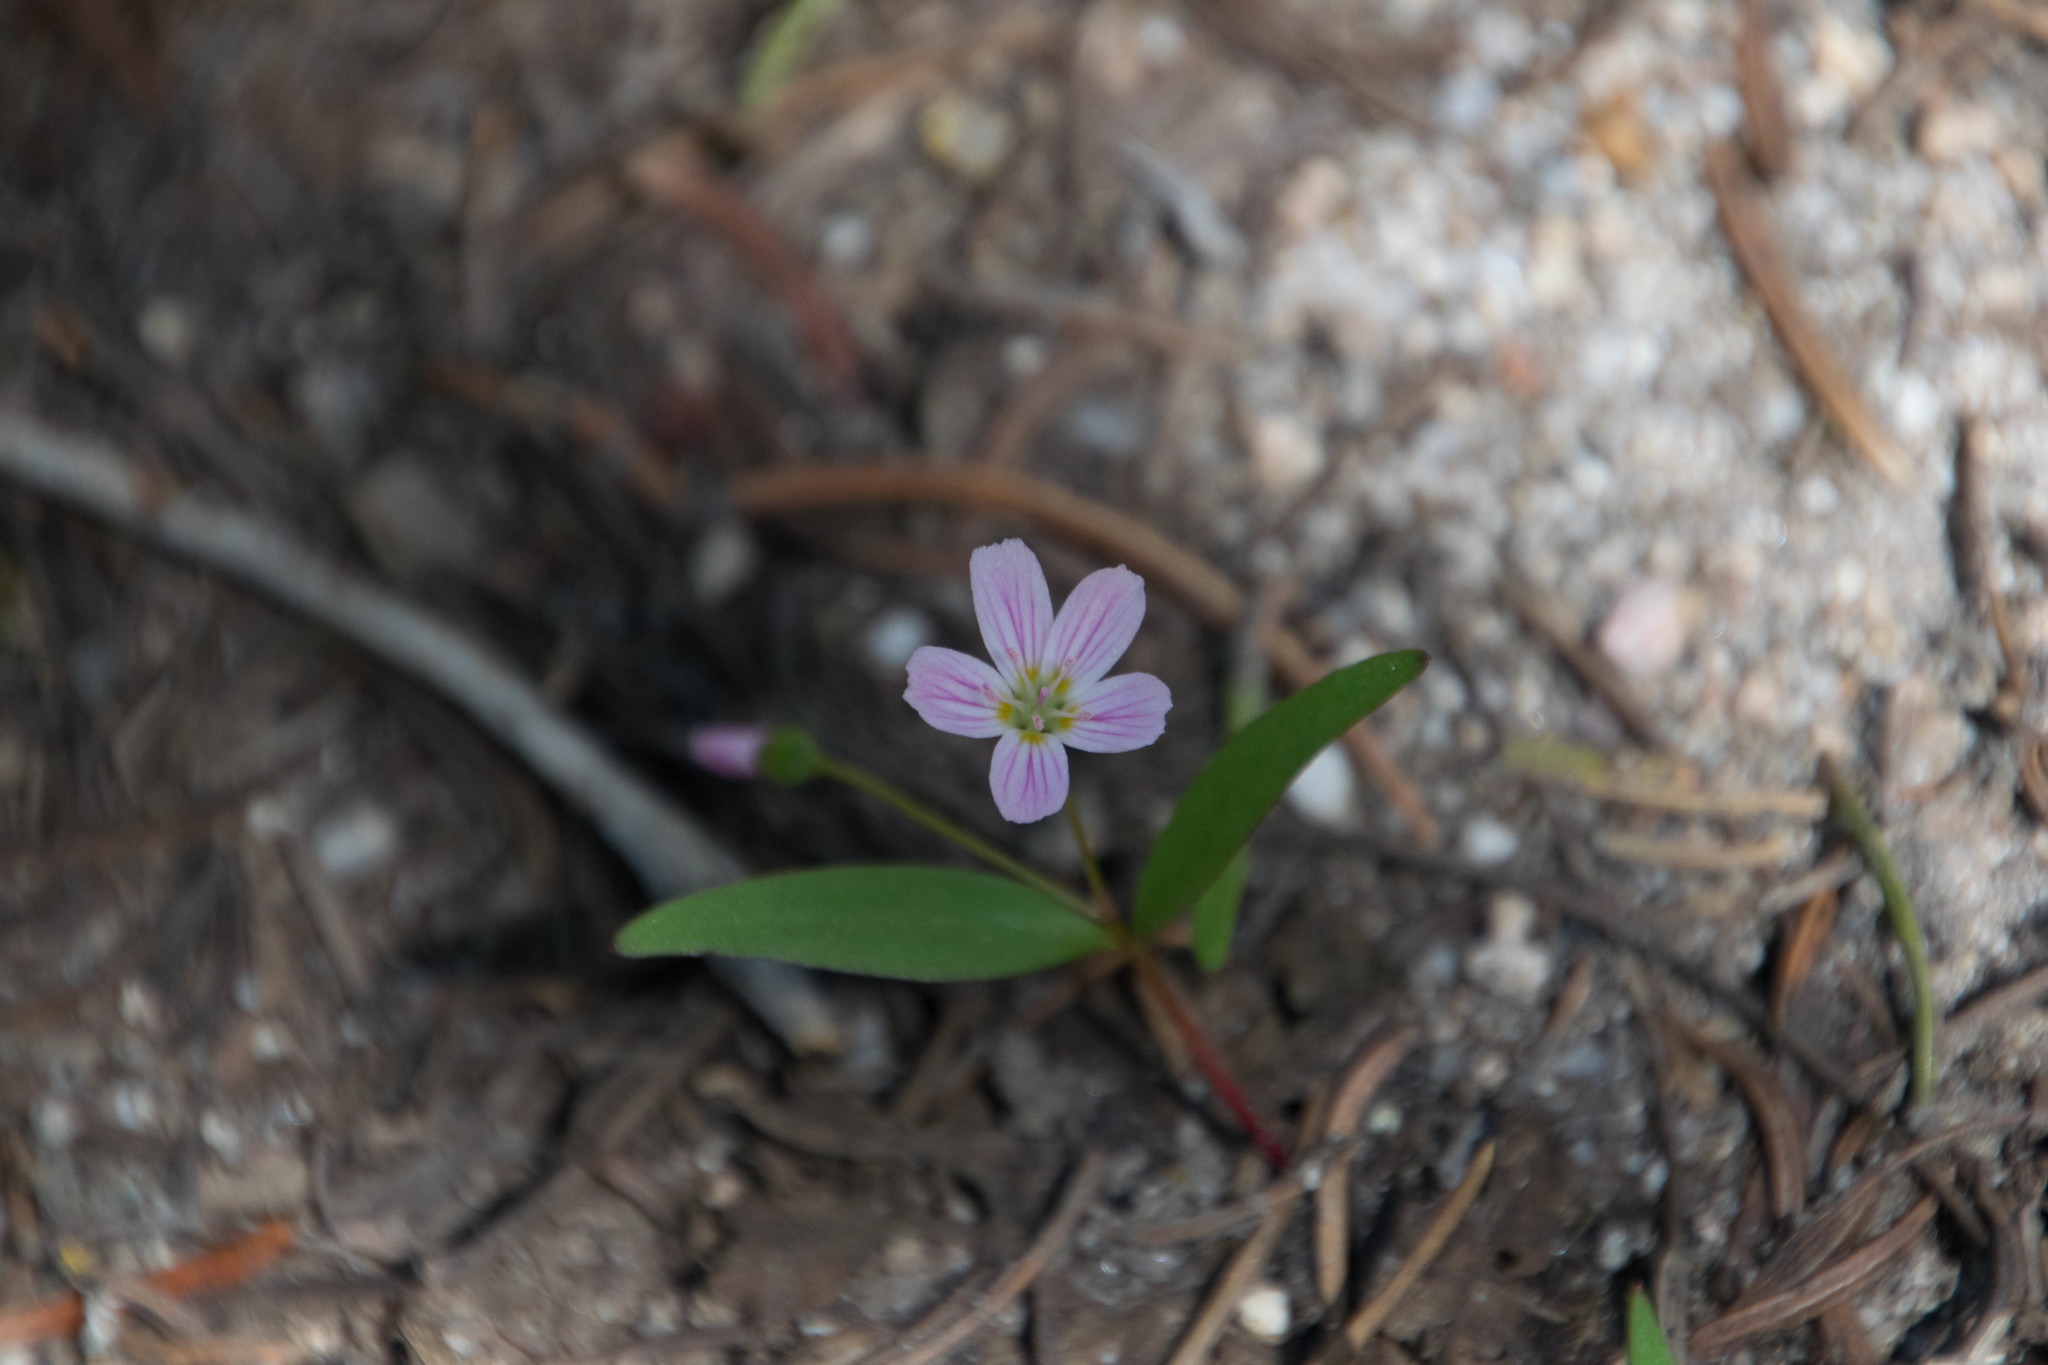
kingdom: Plantae
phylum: Tracheophyta
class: Magnoliopsida
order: Caryophyllales
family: Montiaceae
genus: Claytonia
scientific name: Claytonia lanceolata
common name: Western spring-beauty
